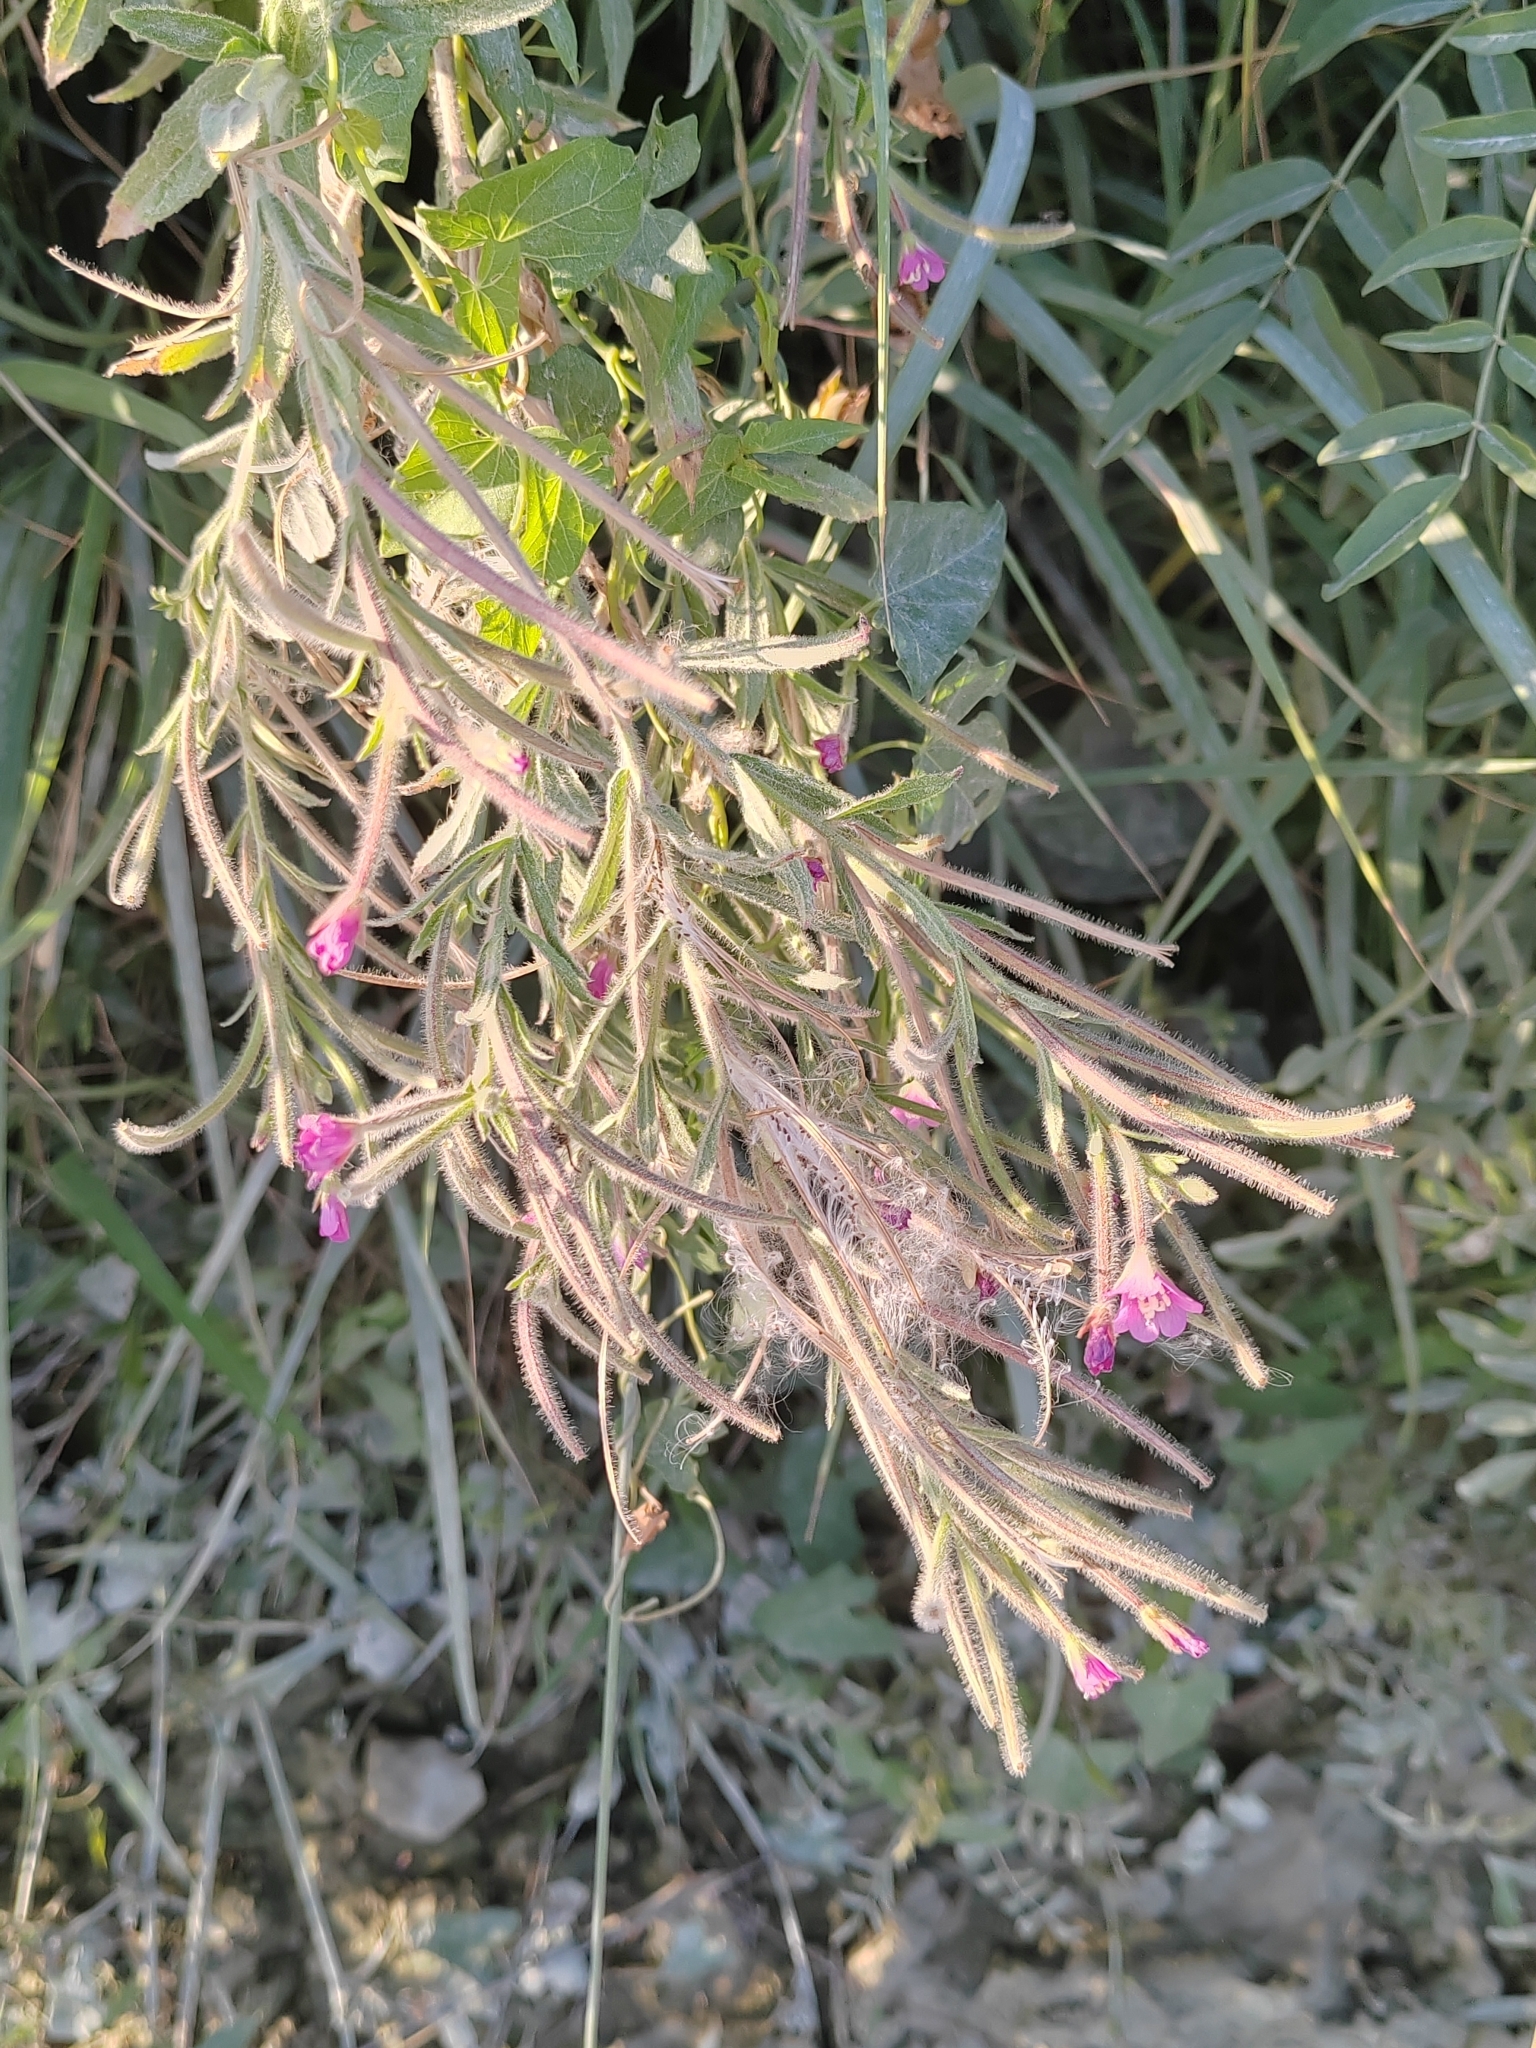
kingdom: Plantae
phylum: Tracheophyta
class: Magnoliopsida
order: Myrtales
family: Onagraceae
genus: Epilobium
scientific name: Epilobium hirsutum
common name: Great willowherb
